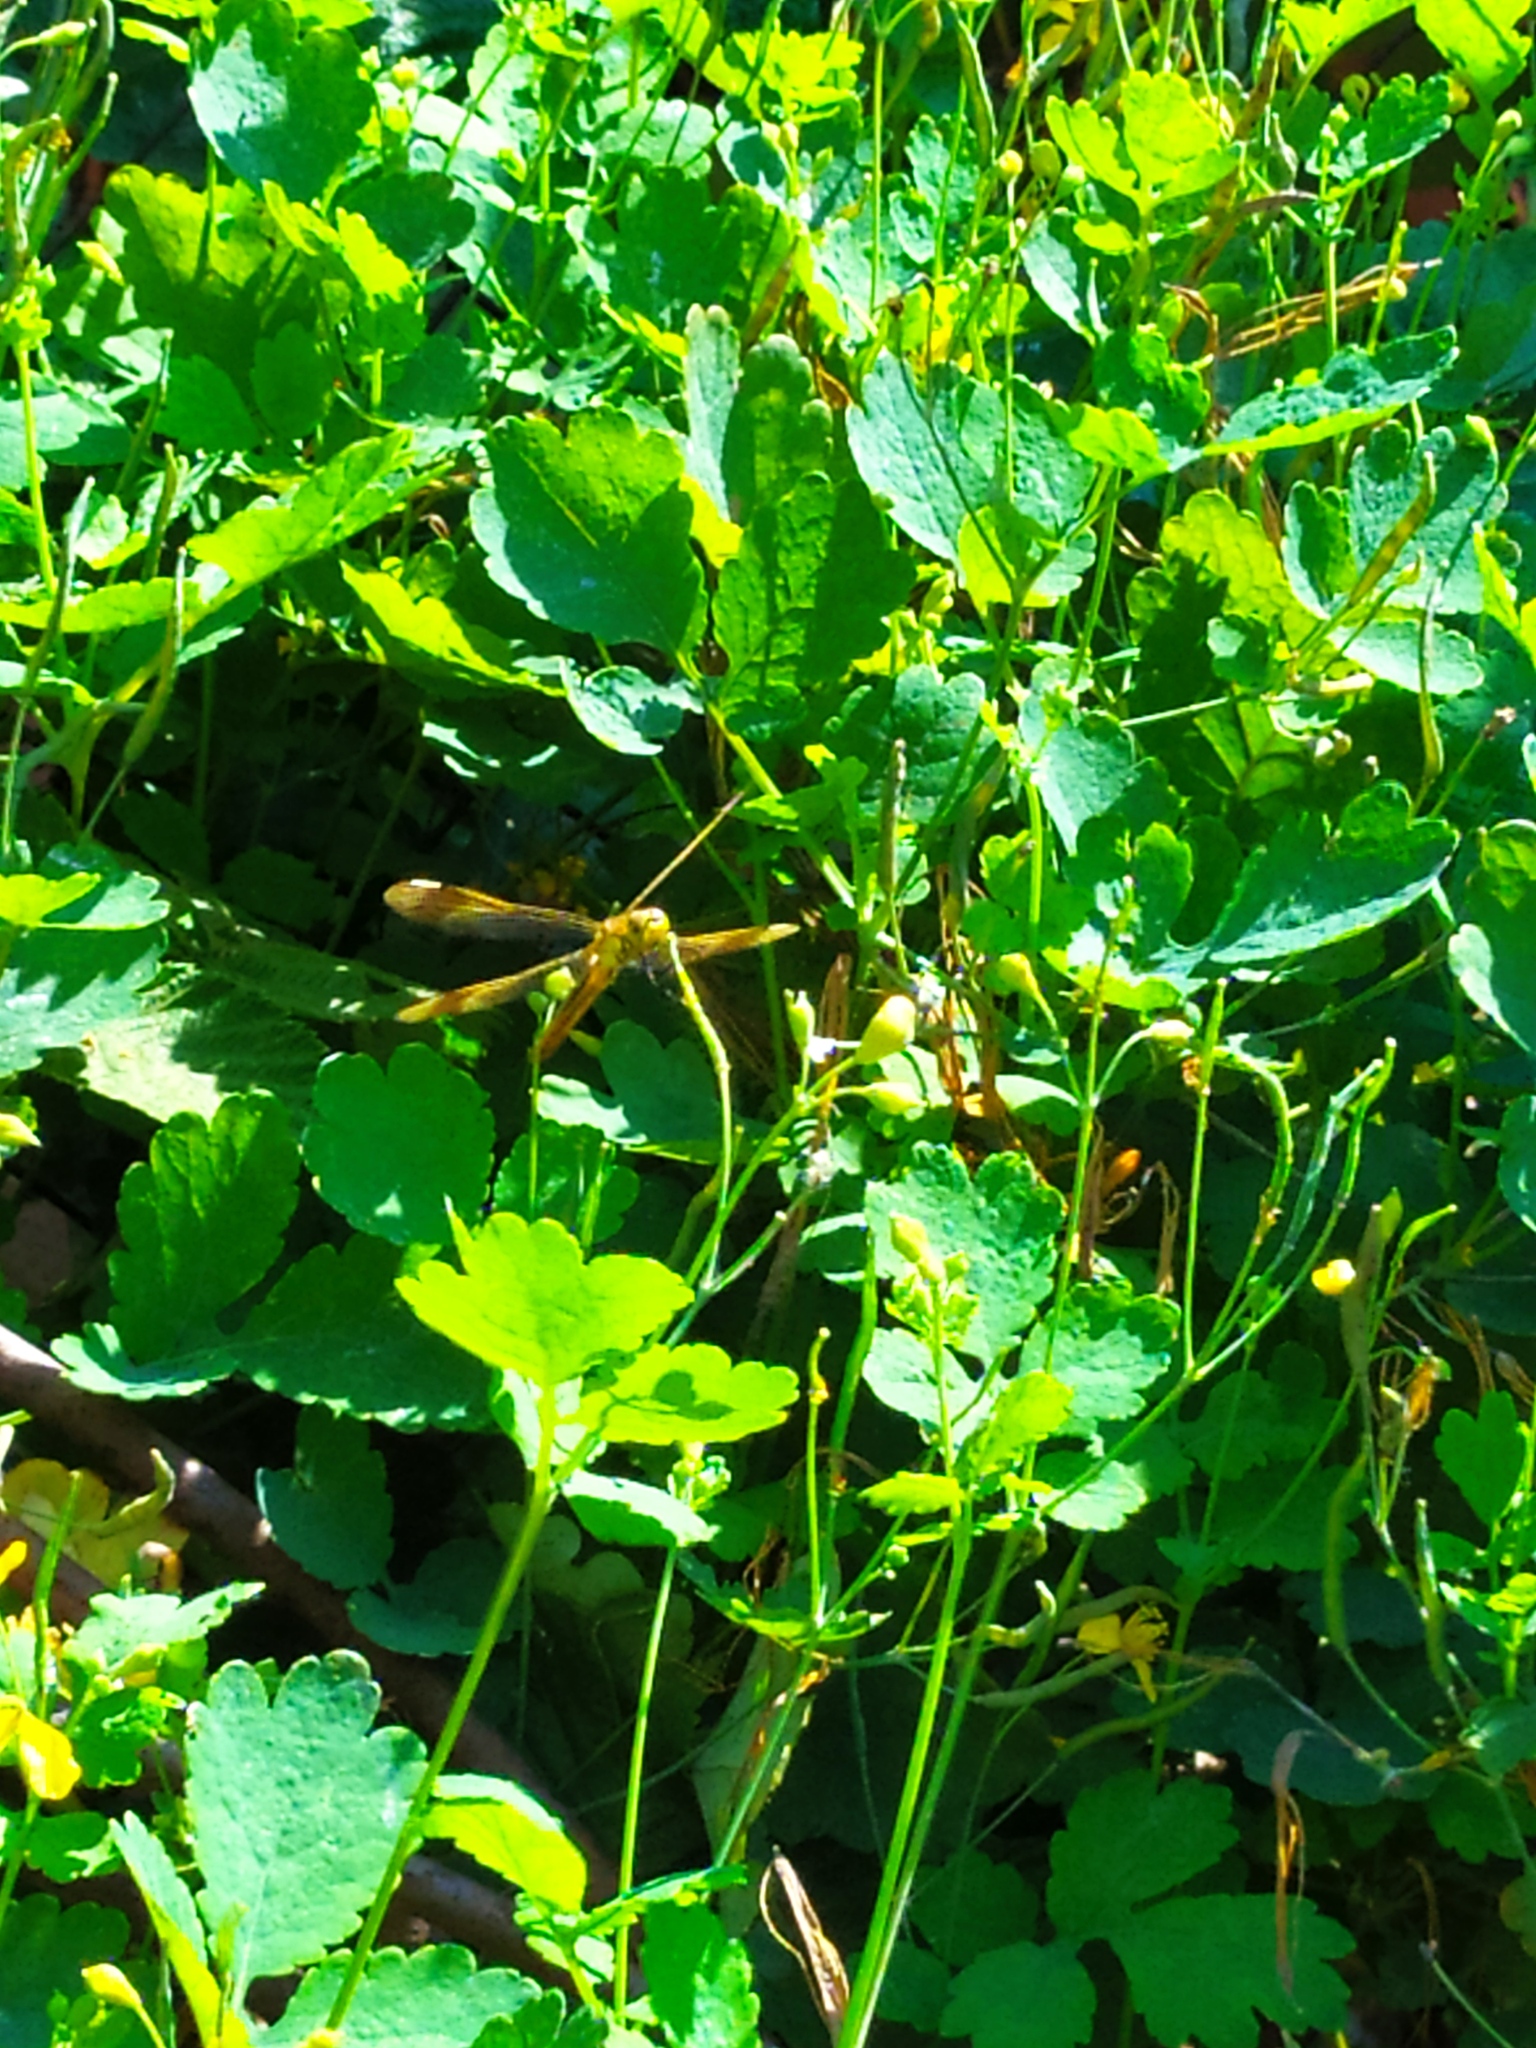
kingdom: Animalia
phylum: Arthropoda
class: Insecta
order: Odonata
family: Libellulidae
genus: Sympetrum
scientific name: Sympetrum pedemontanum
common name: Banded darter
